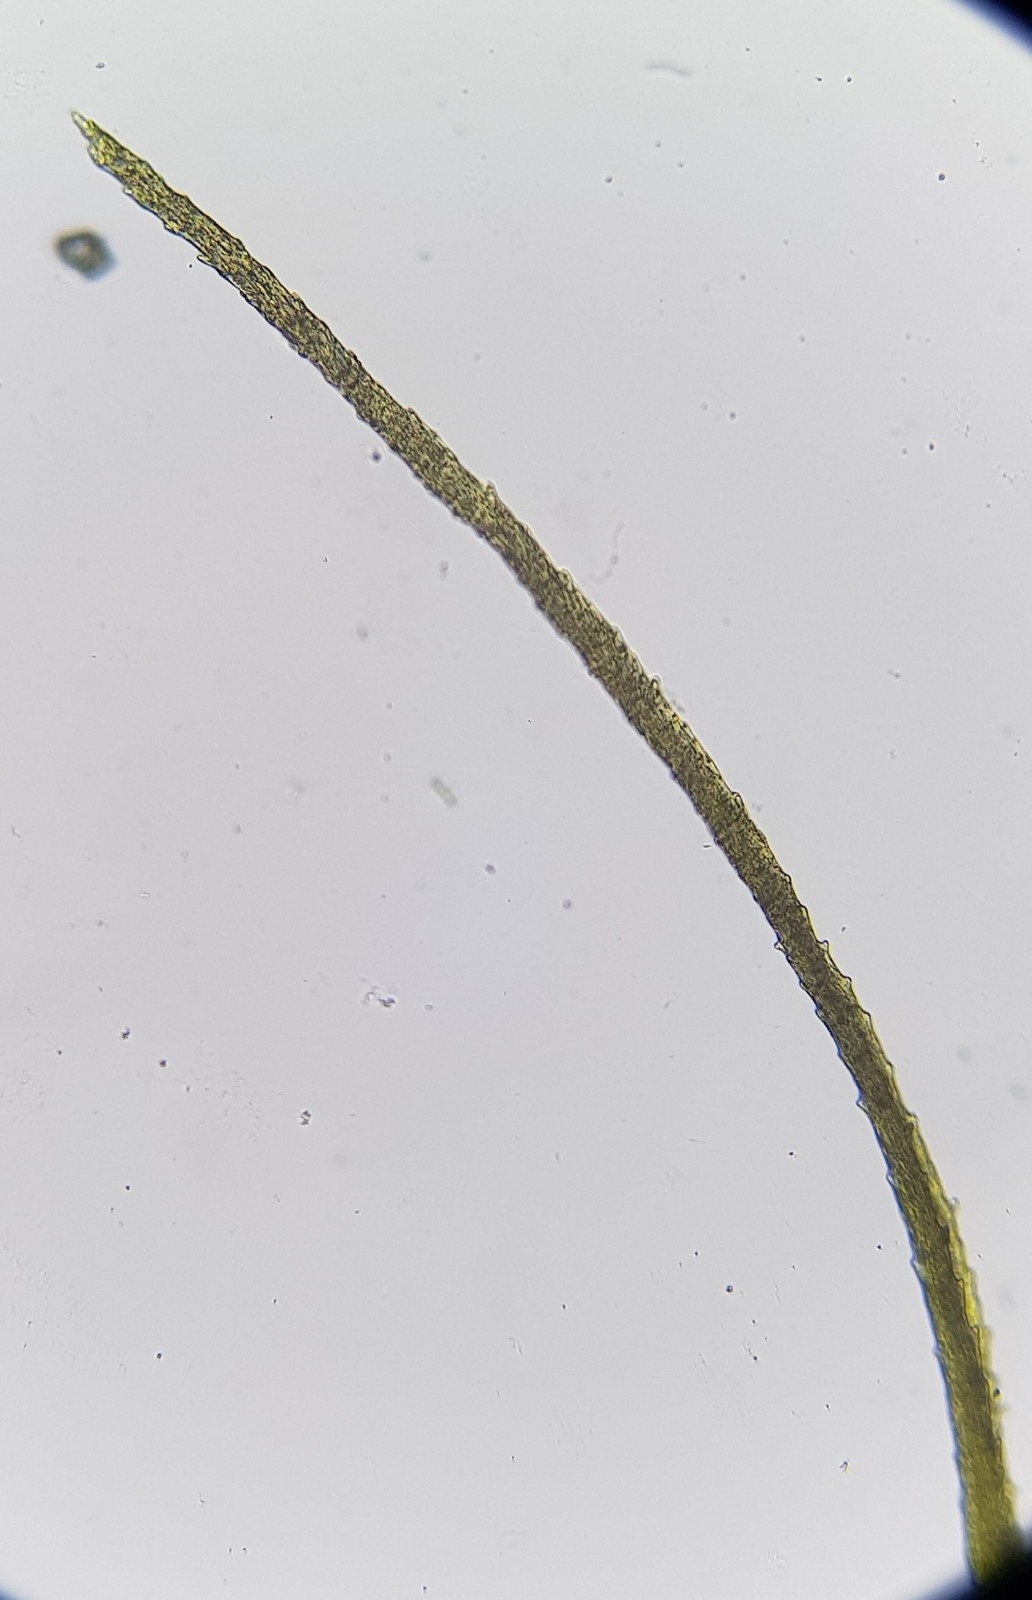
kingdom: Plantae
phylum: Bryophyta
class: Bryopsida
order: Scouleriales
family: Flexitrichaceae
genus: Flexitrichum
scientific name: Flexitrichum gracile
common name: Slender ditrichum
